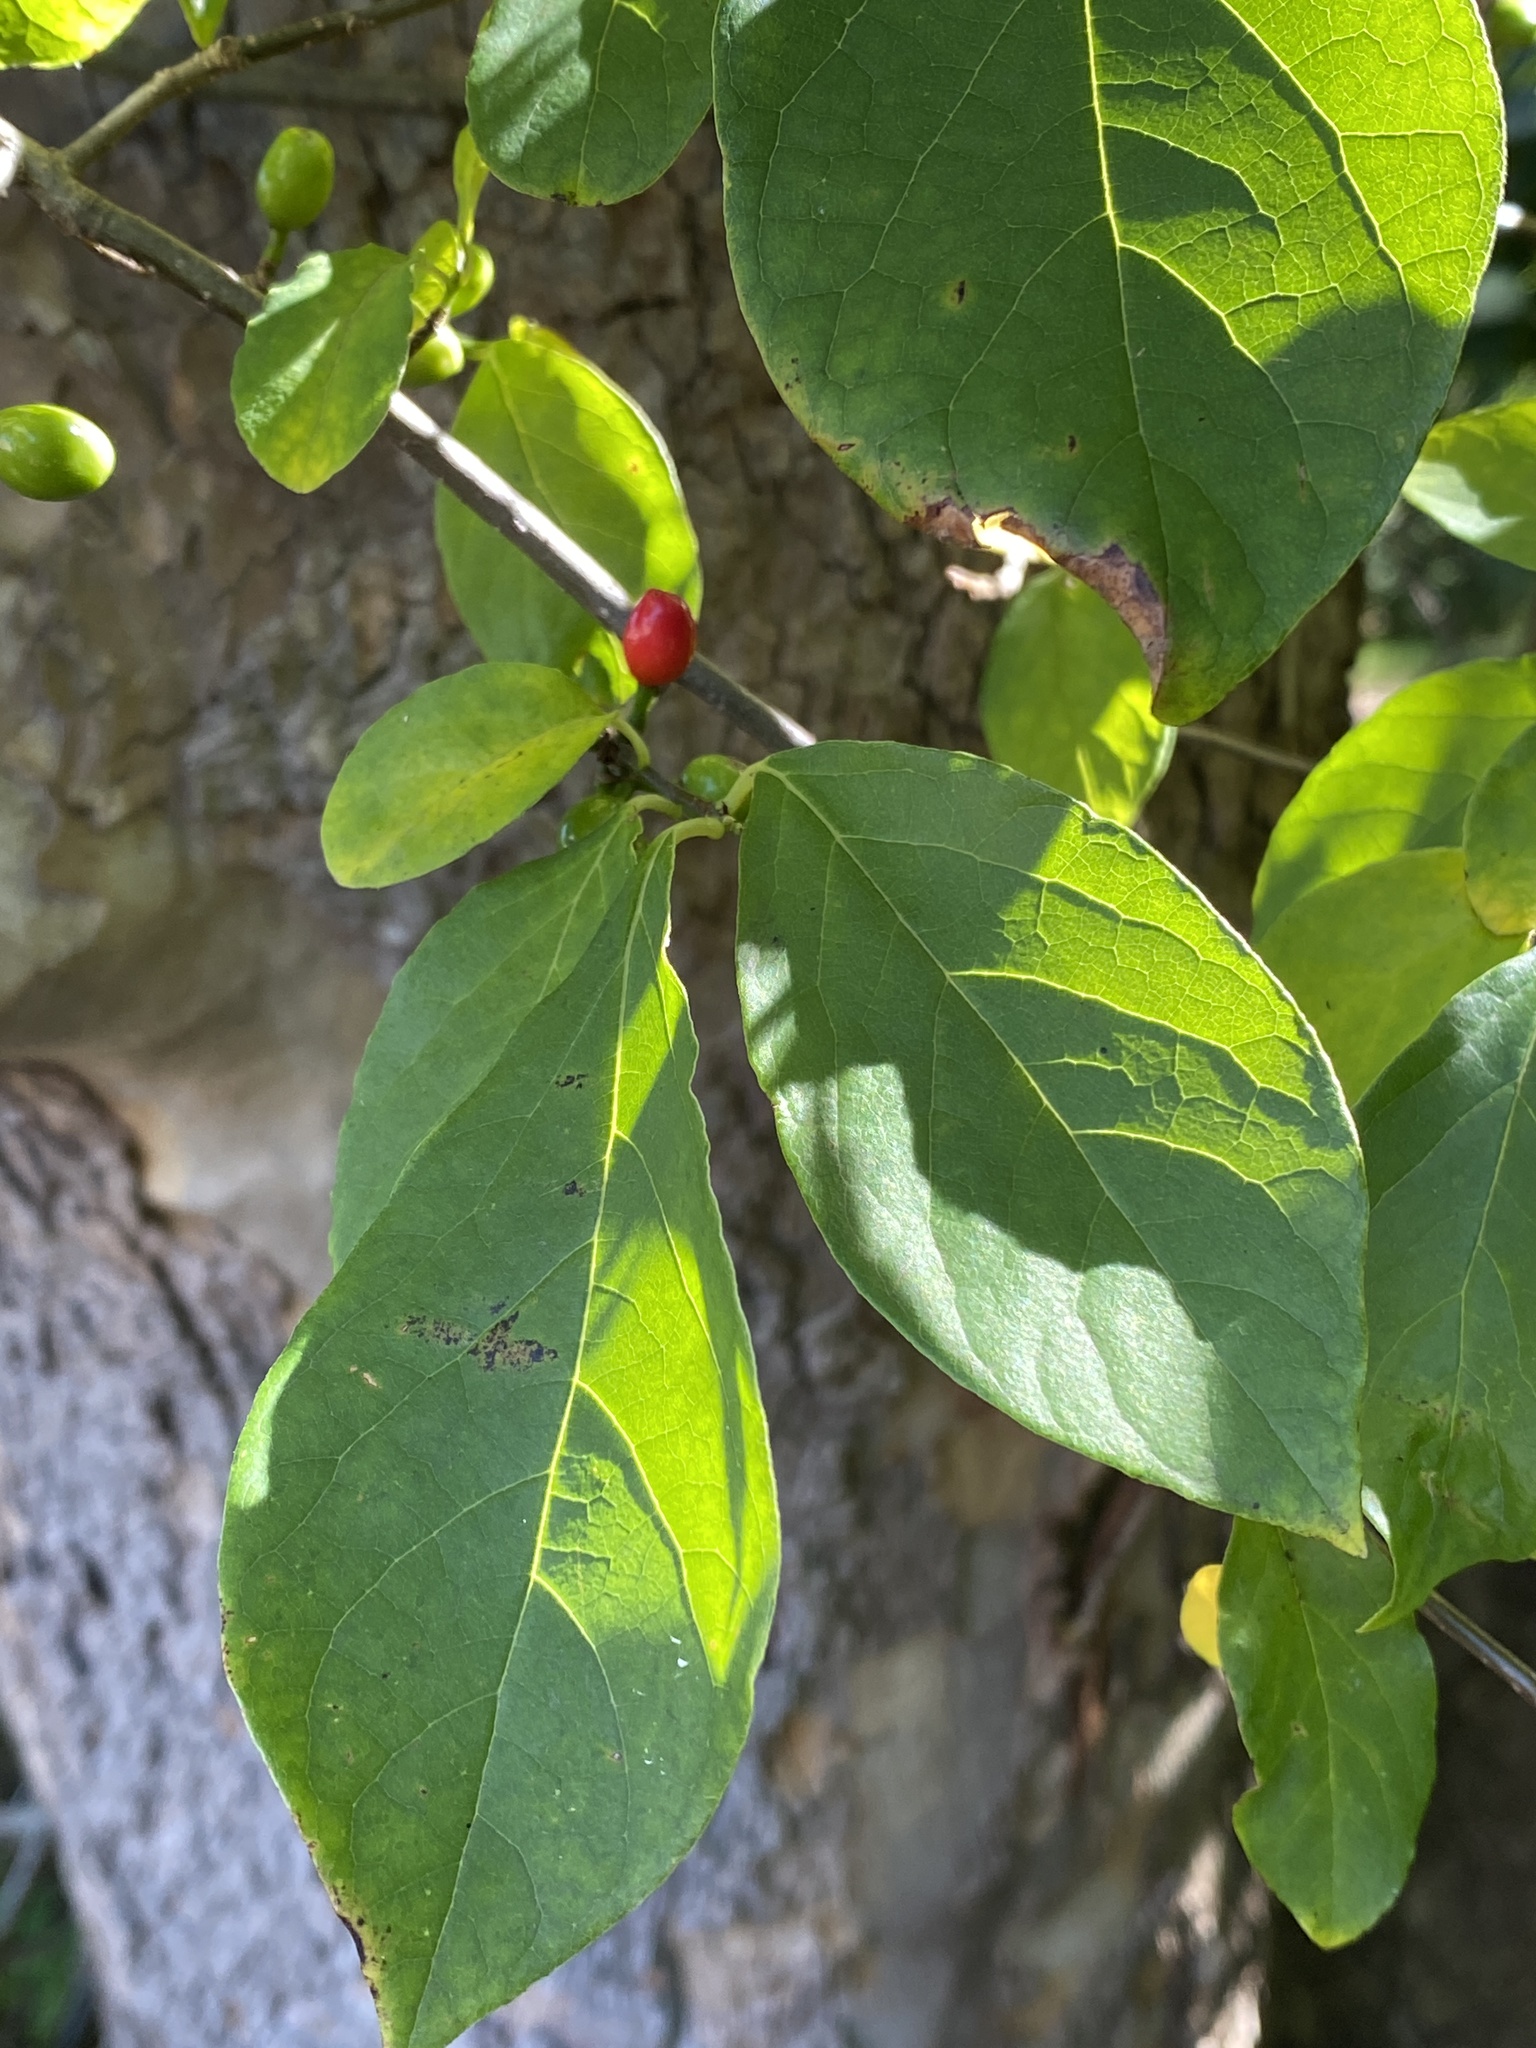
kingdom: Plantae
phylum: Tracheophyta
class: Magnoliopsida
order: Laurales
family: Lauraceae
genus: Lindera
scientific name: Lindera benzoin
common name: Spicebush
